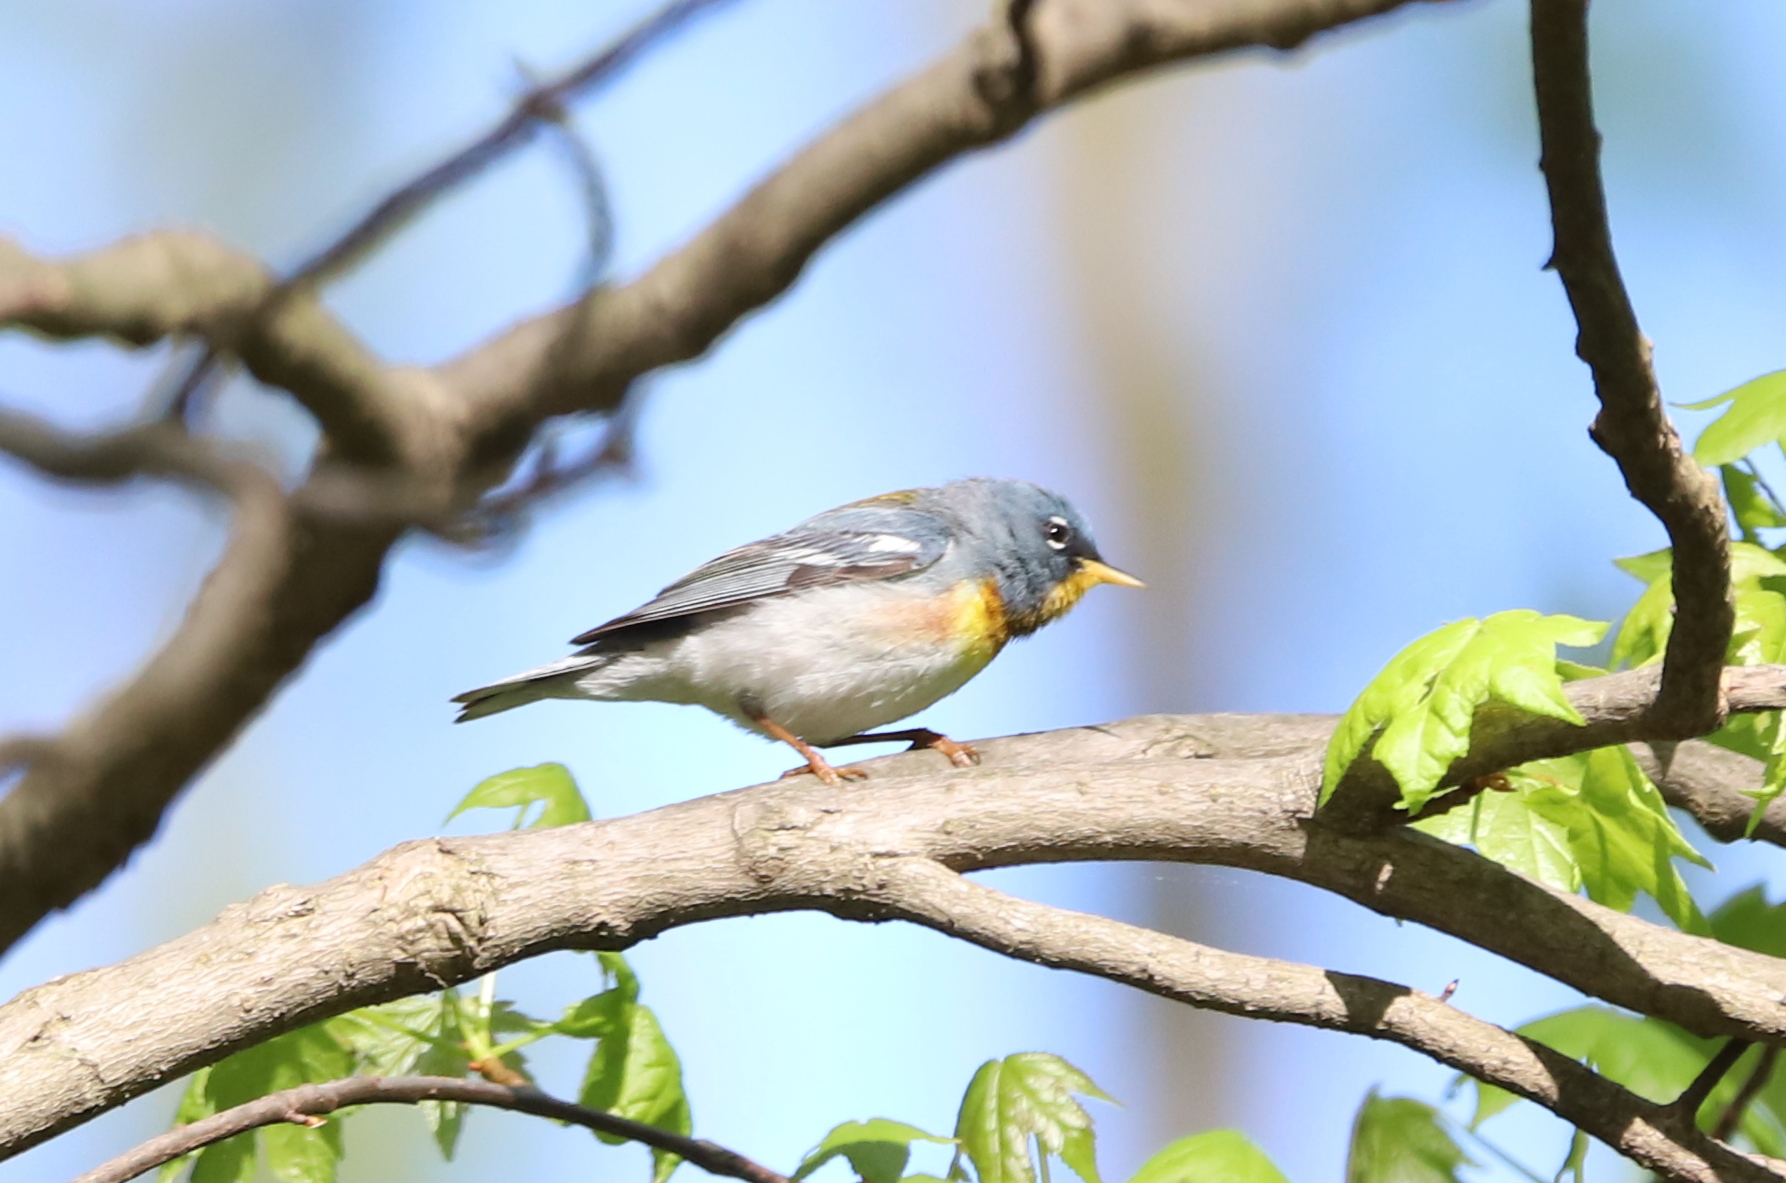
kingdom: Animalia
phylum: Chordata
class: Aves
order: Passeriformes
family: Parulidae
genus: Setophaga
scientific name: Setophaga americana
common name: Northern parula
